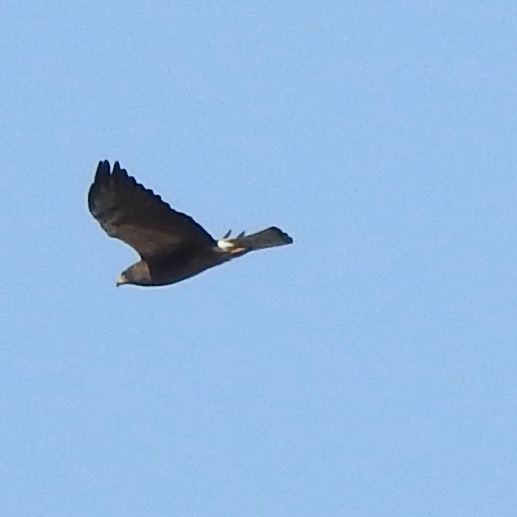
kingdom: Animalia
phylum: Chordata
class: Aves
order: Accipitriformes
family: Accipitridae
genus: Buteo
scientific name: Buteo swainsoni
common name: Swainson's hawk
